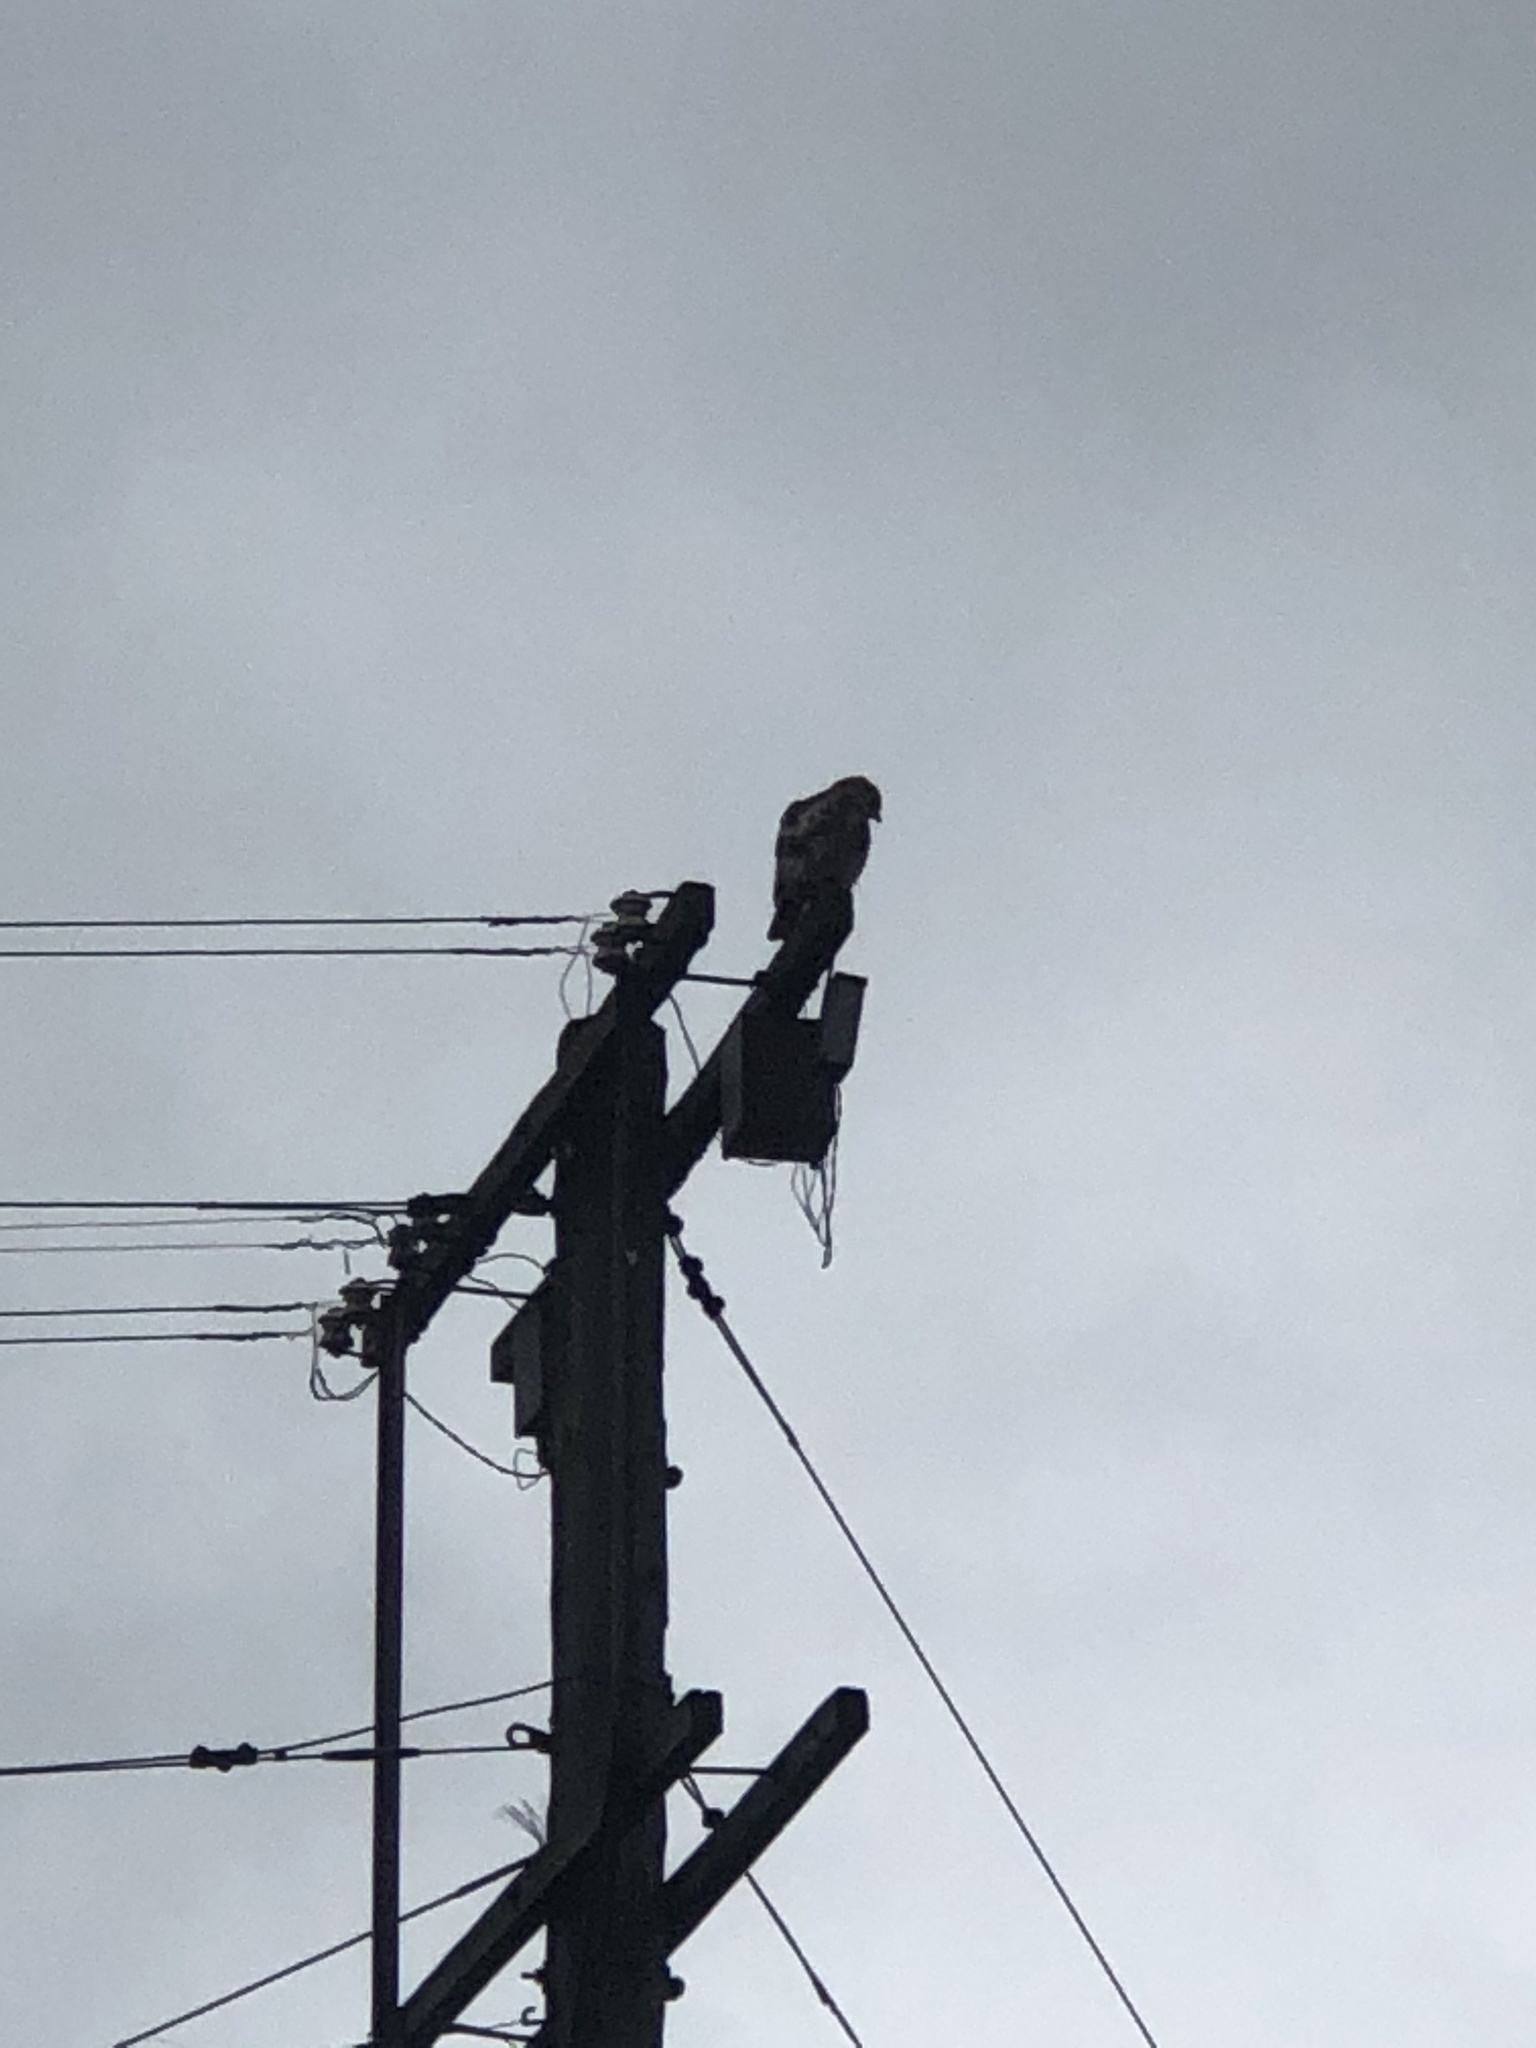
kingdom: Animalia
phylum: Chordata
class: Aves
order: Accipitriformes
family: Accipitridae
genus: Buteo
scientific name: Buteo jamaicensis
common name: Red-tailed hawk
